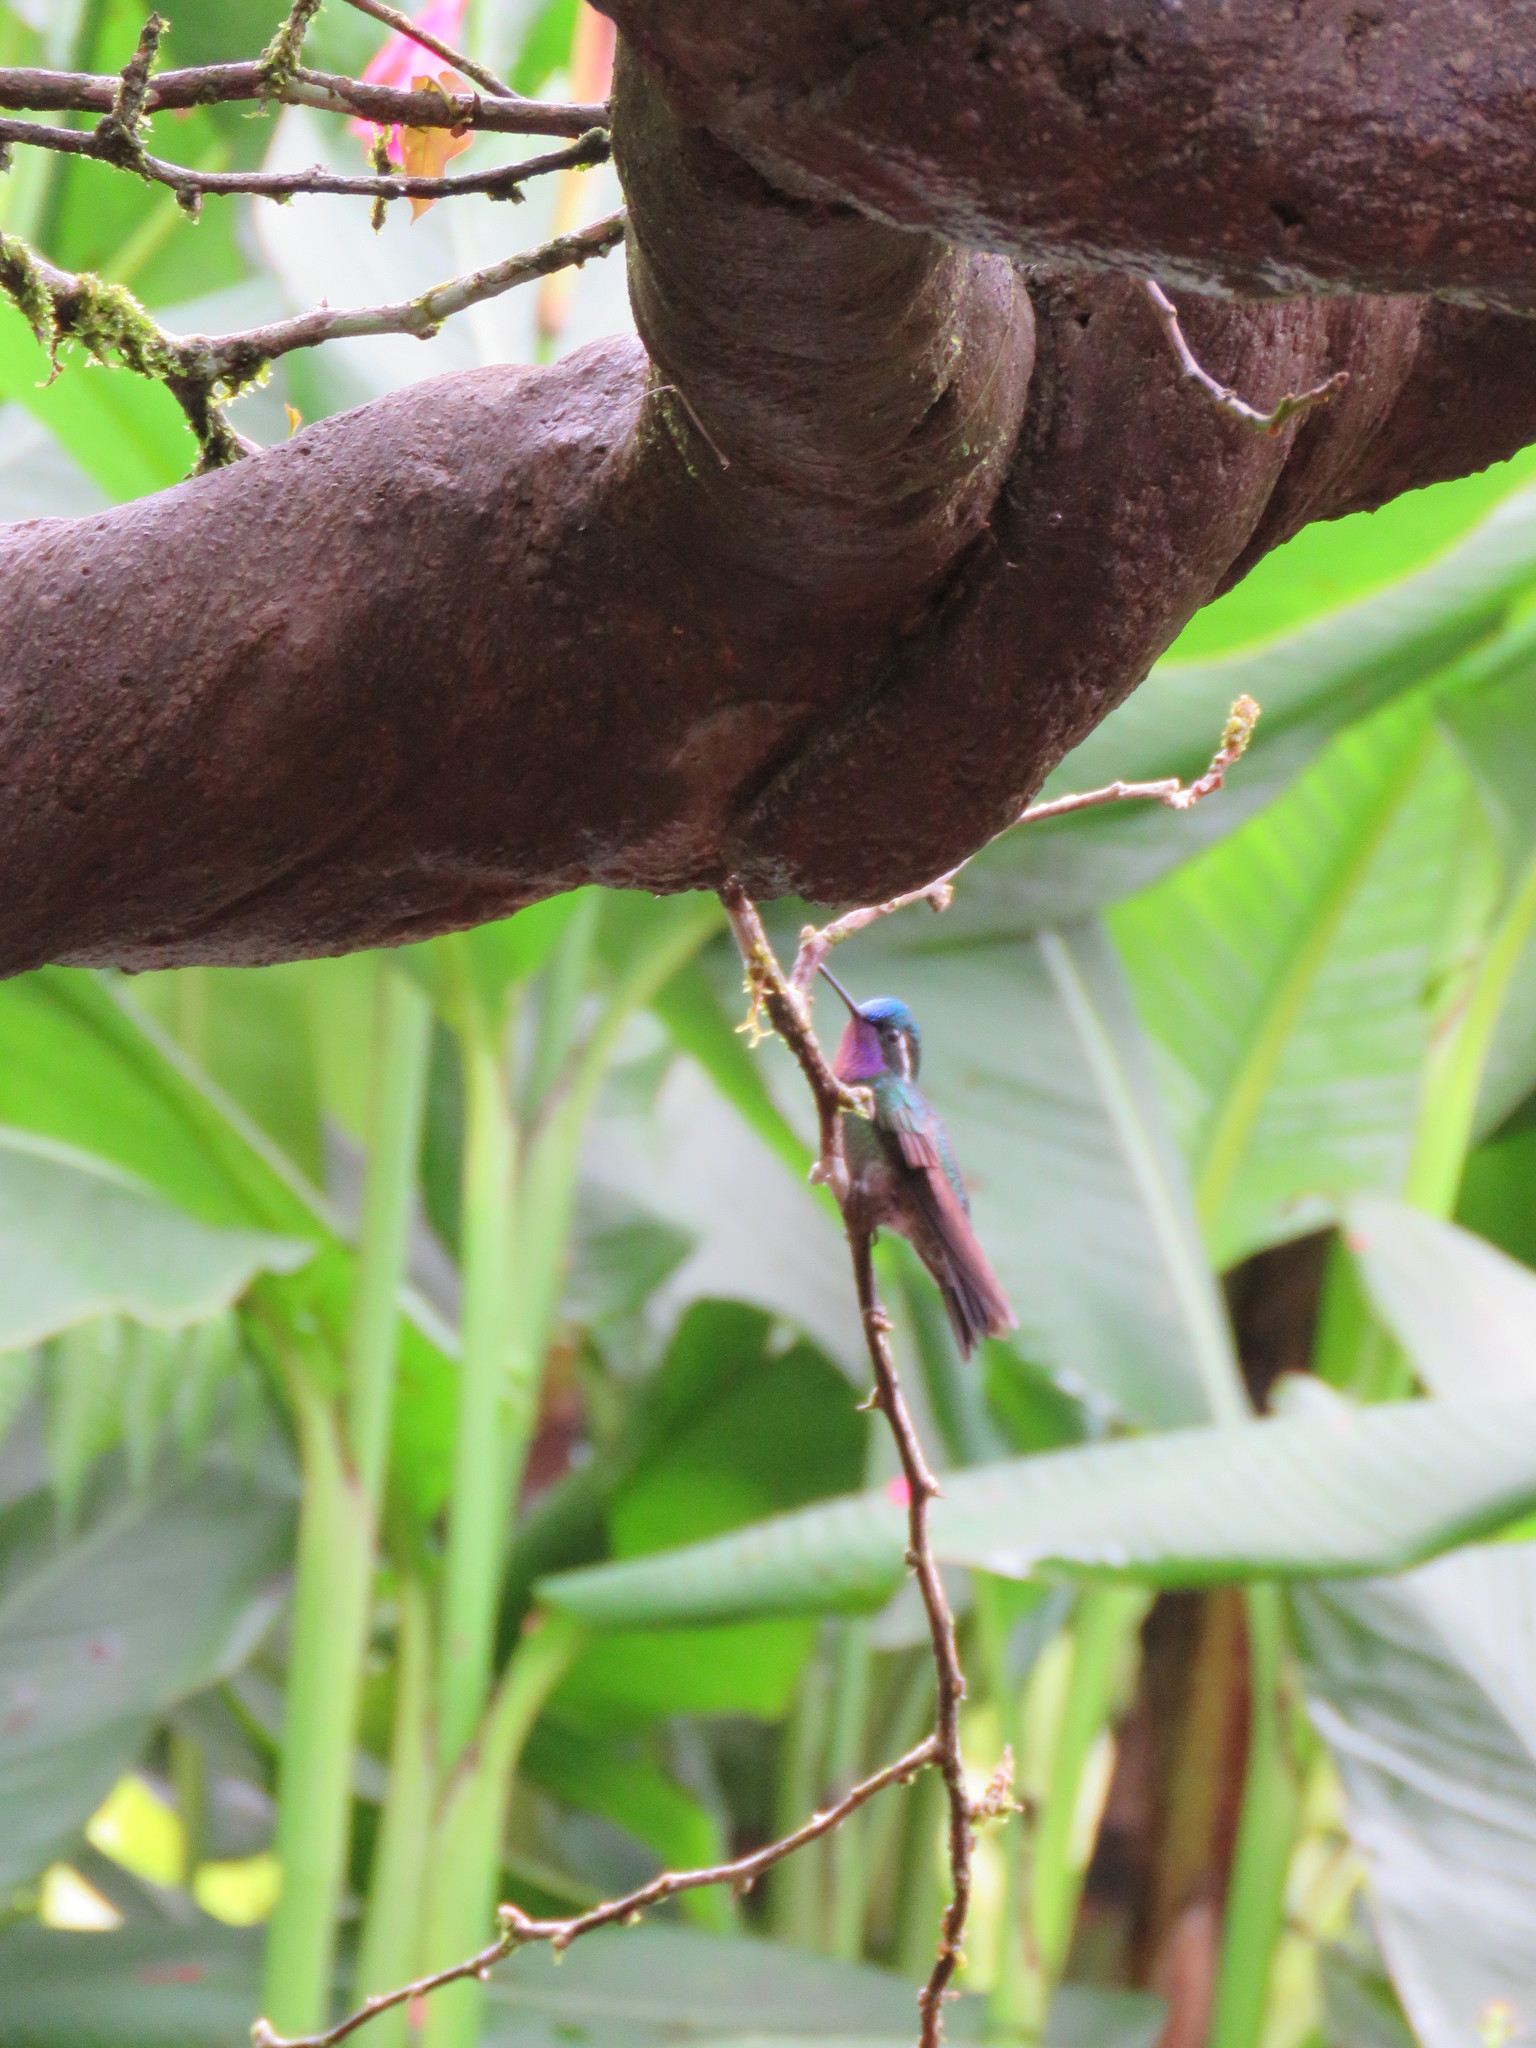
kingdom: Animalia
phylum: Chordata
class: Aves
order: Apodiformes
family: Trochilidae
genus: Lampornis
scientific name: Lampornis calolaemus
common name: Purple-throated mountain-gem
